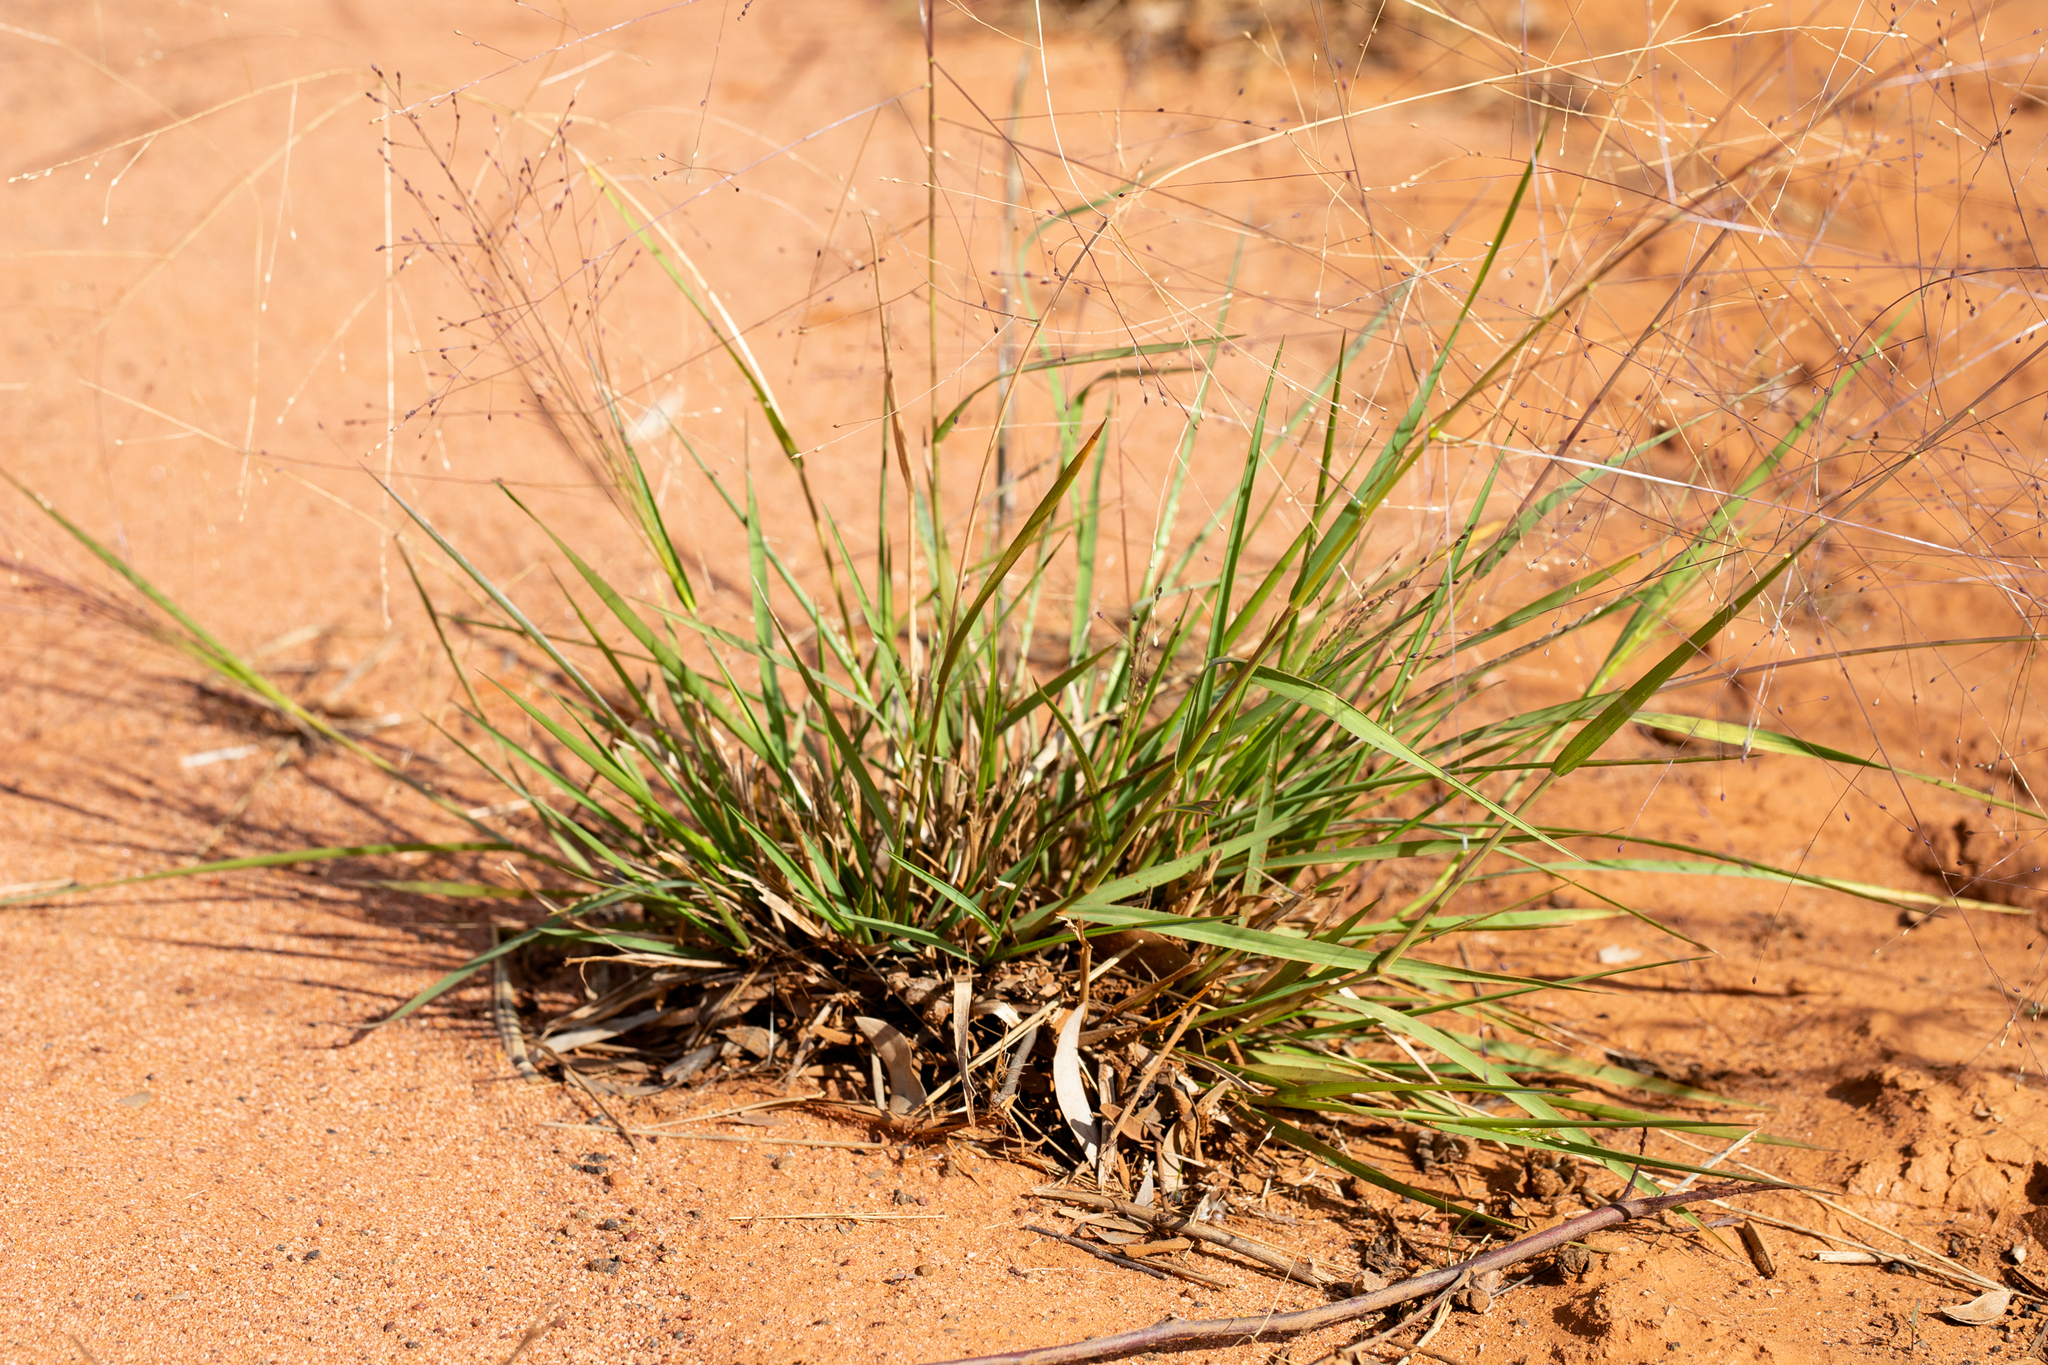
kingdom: Plantae
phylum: Tracheophyta
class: Liliopsida
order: Poales
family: Poaceae
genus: Panicum
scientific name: Panicum effusum
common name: Hairy panic grass
